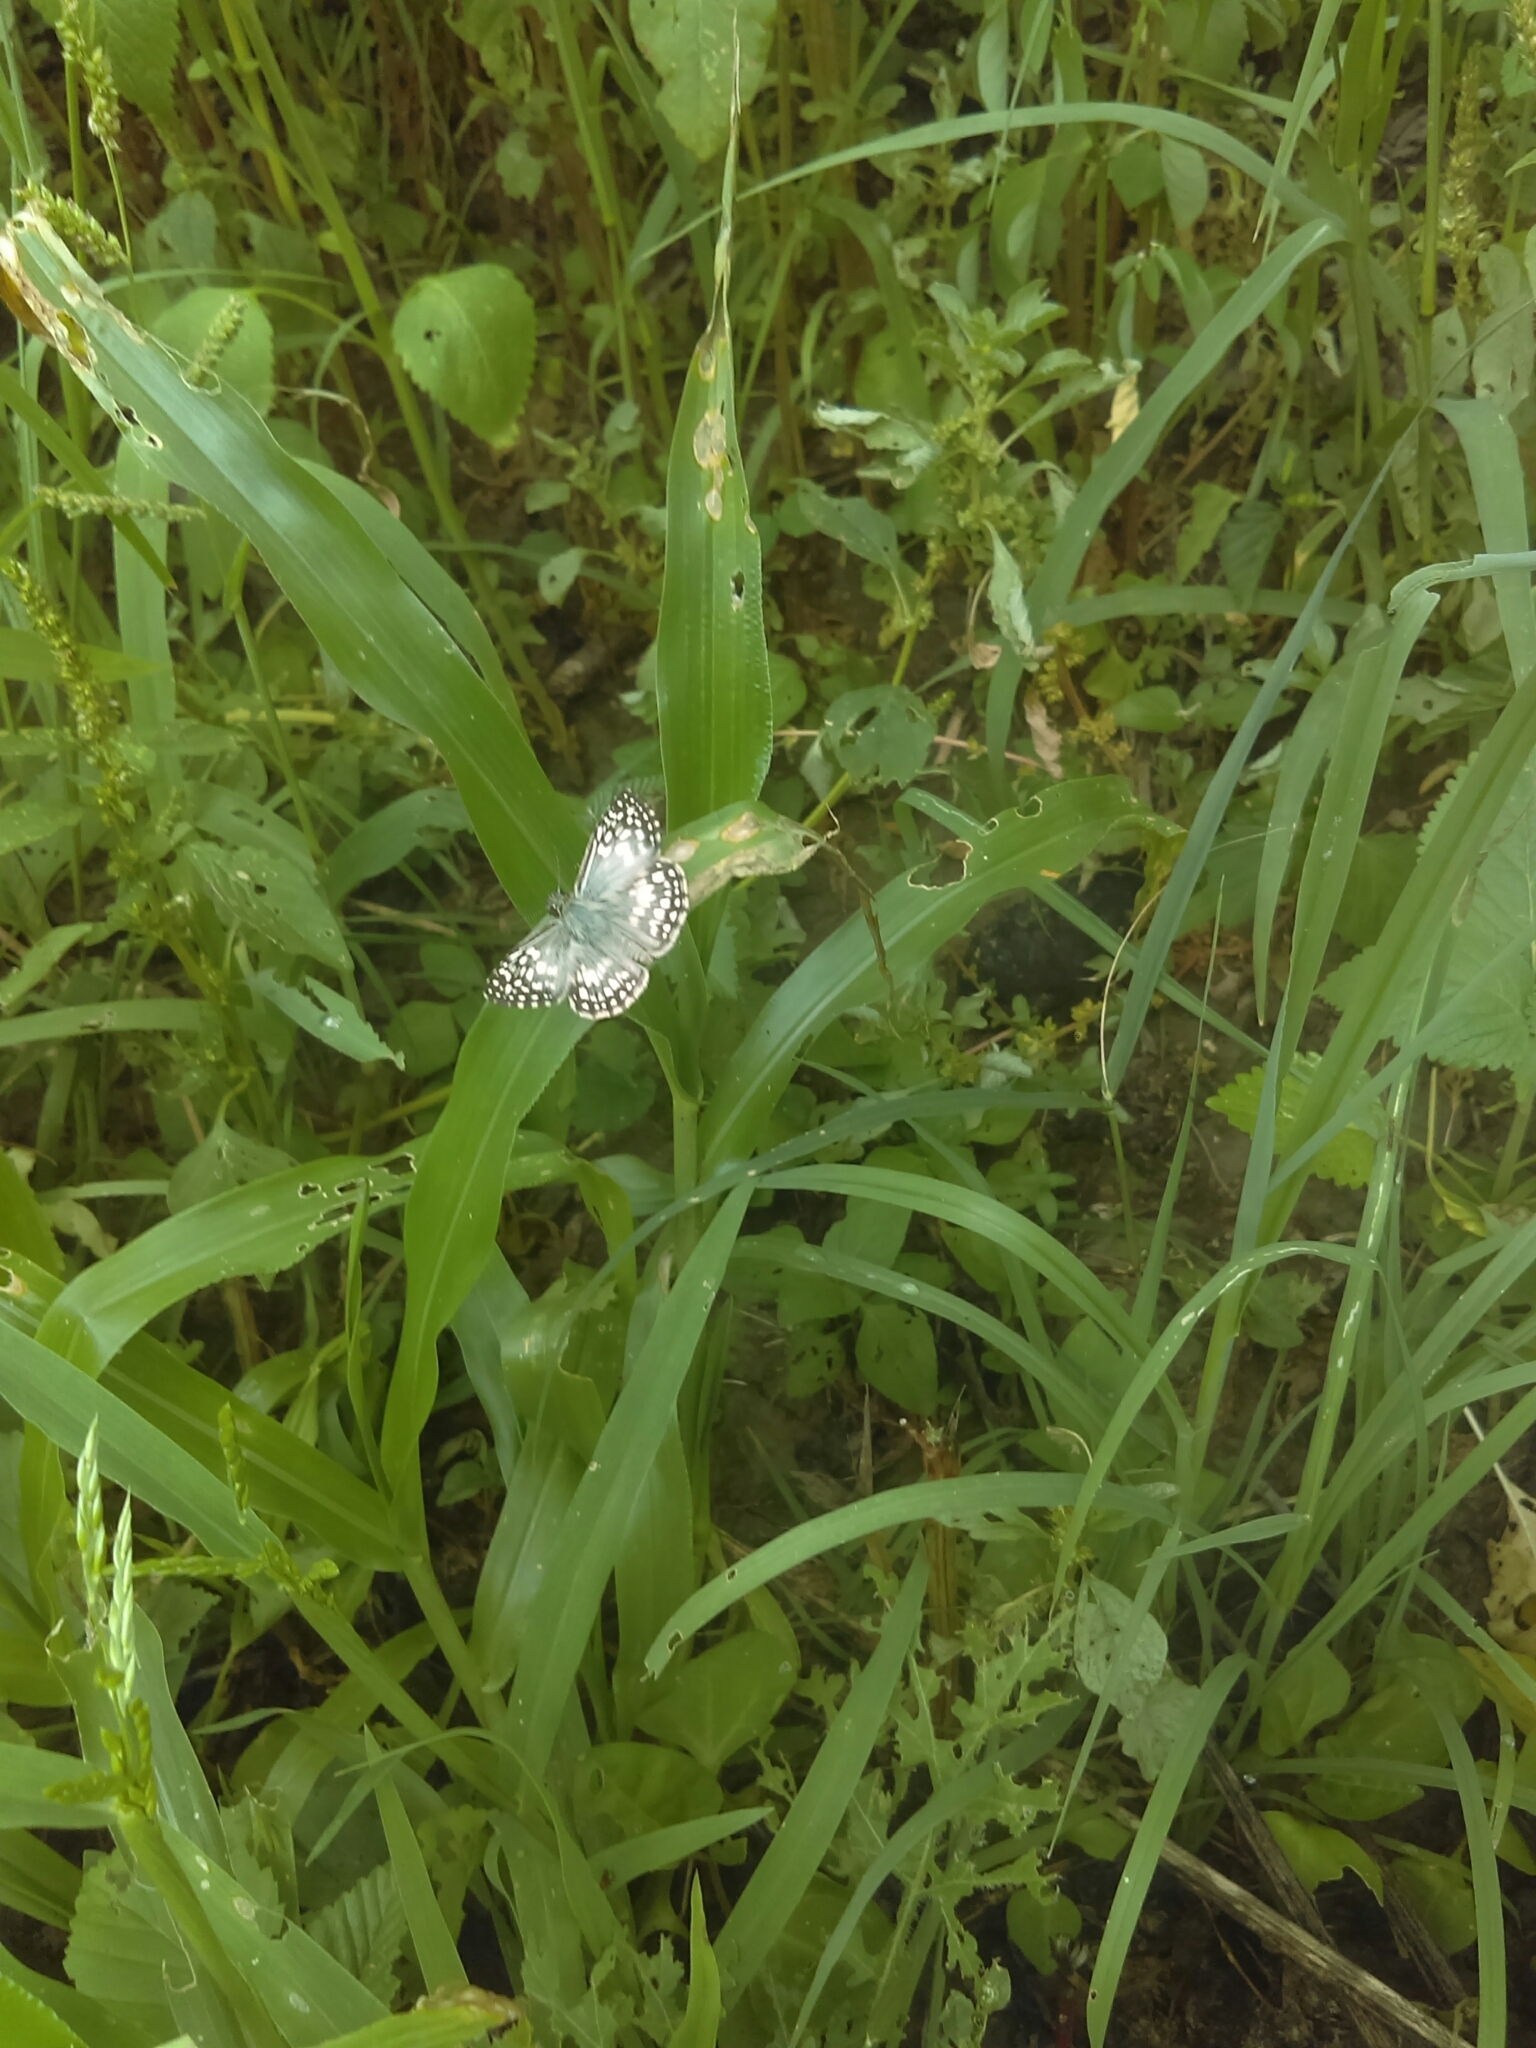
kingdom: Animalia
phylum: Arthropoda
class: Insecta
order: Lepidoptera
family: Hesperiidae
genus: Pyrgus
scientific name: Pyrgus oileus
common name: Tropical checkered-skipper
